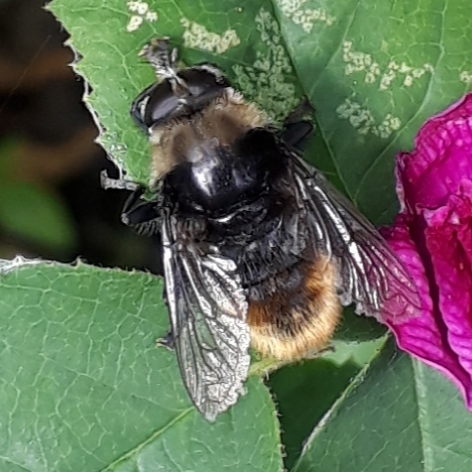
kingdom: Animalia
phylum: Arthropoda
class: Insecta
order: Diptera
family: Syrphidae
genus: Merodon
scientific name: Merodon equestris
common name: Greater bulb-fly
